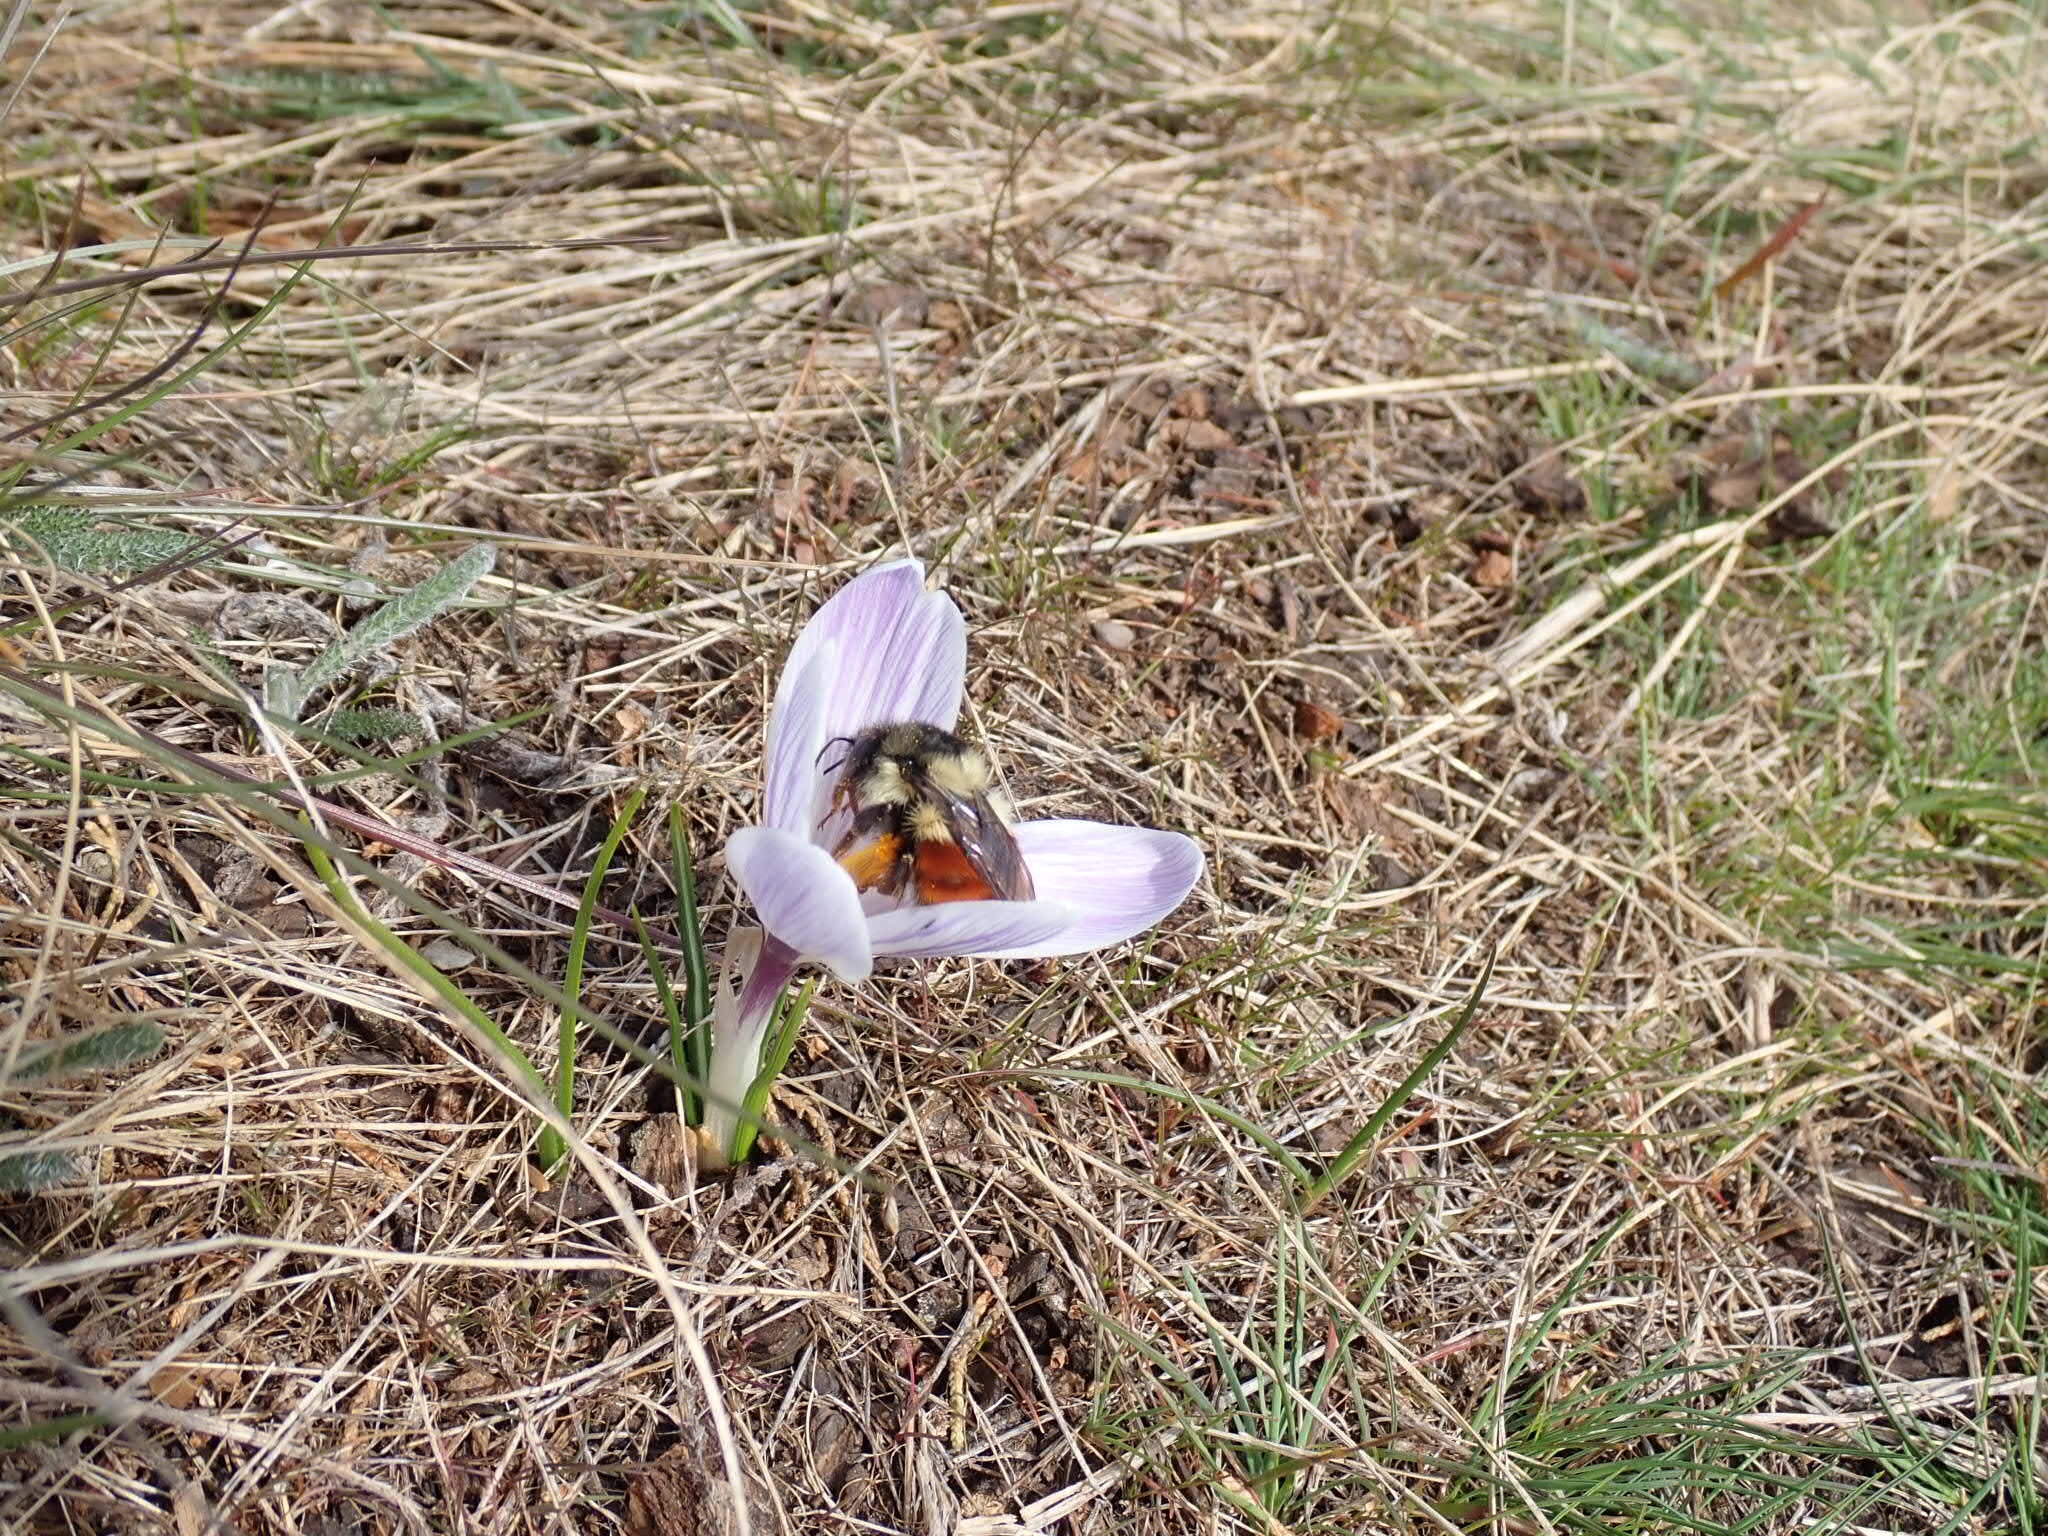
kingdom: Animalia
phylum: Arthropoda
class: Insecta
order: Hymenoptera
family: Apidae
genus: Bombus
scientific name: Bombus melanopygus
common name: Black tail bumble bee
